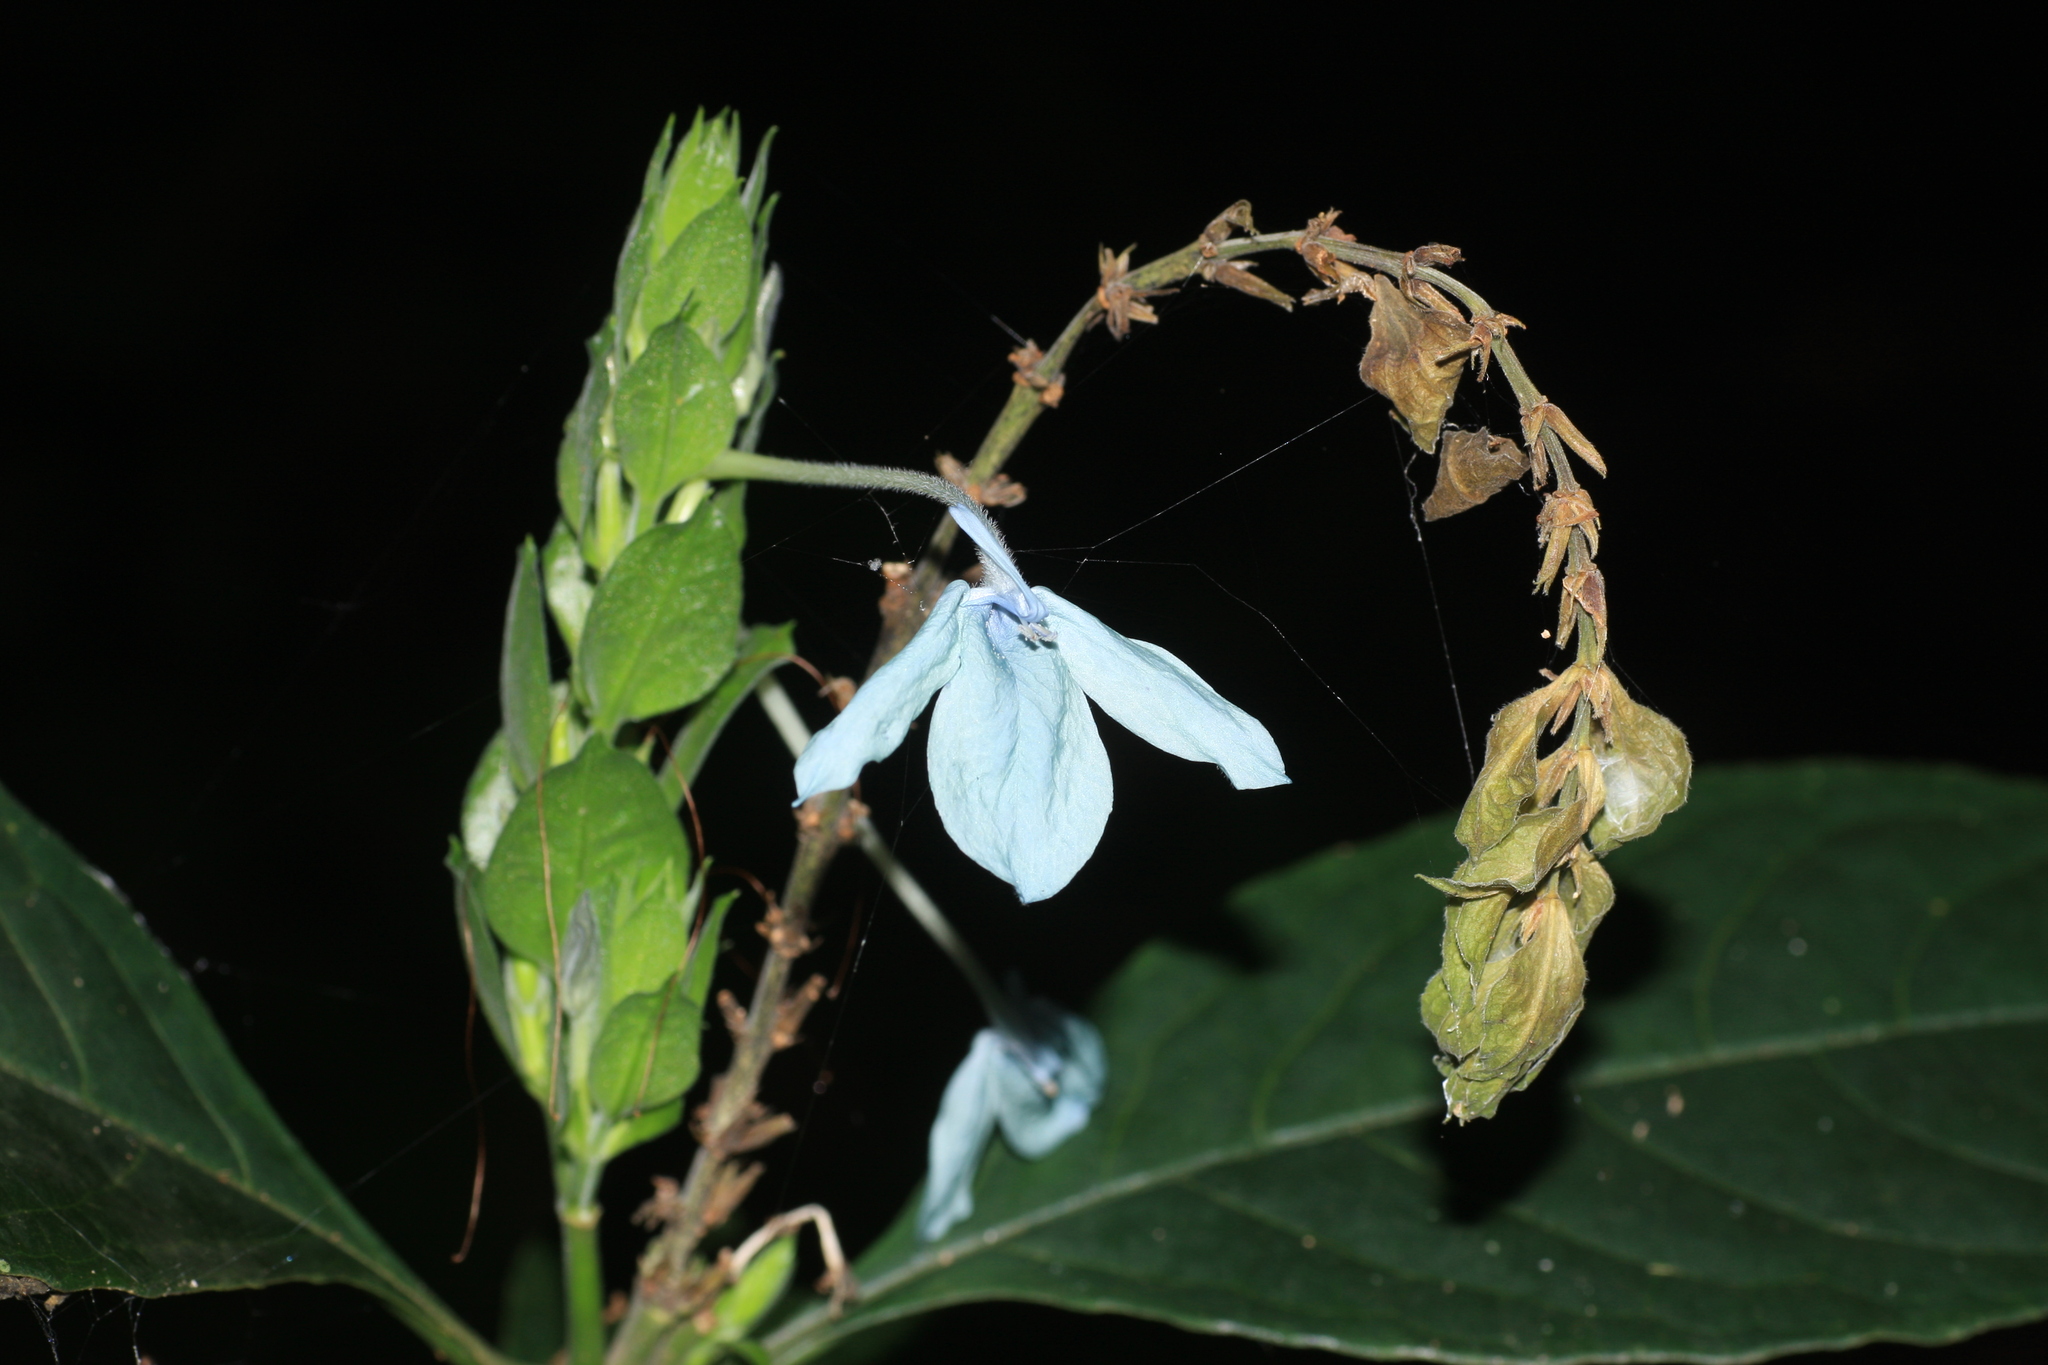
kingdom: Plantae
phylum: Tracheophyta
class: Magnoliopsida
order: Lamiales
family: Acanthaceae
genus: Ecbolium
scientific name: Ecbolium viride
